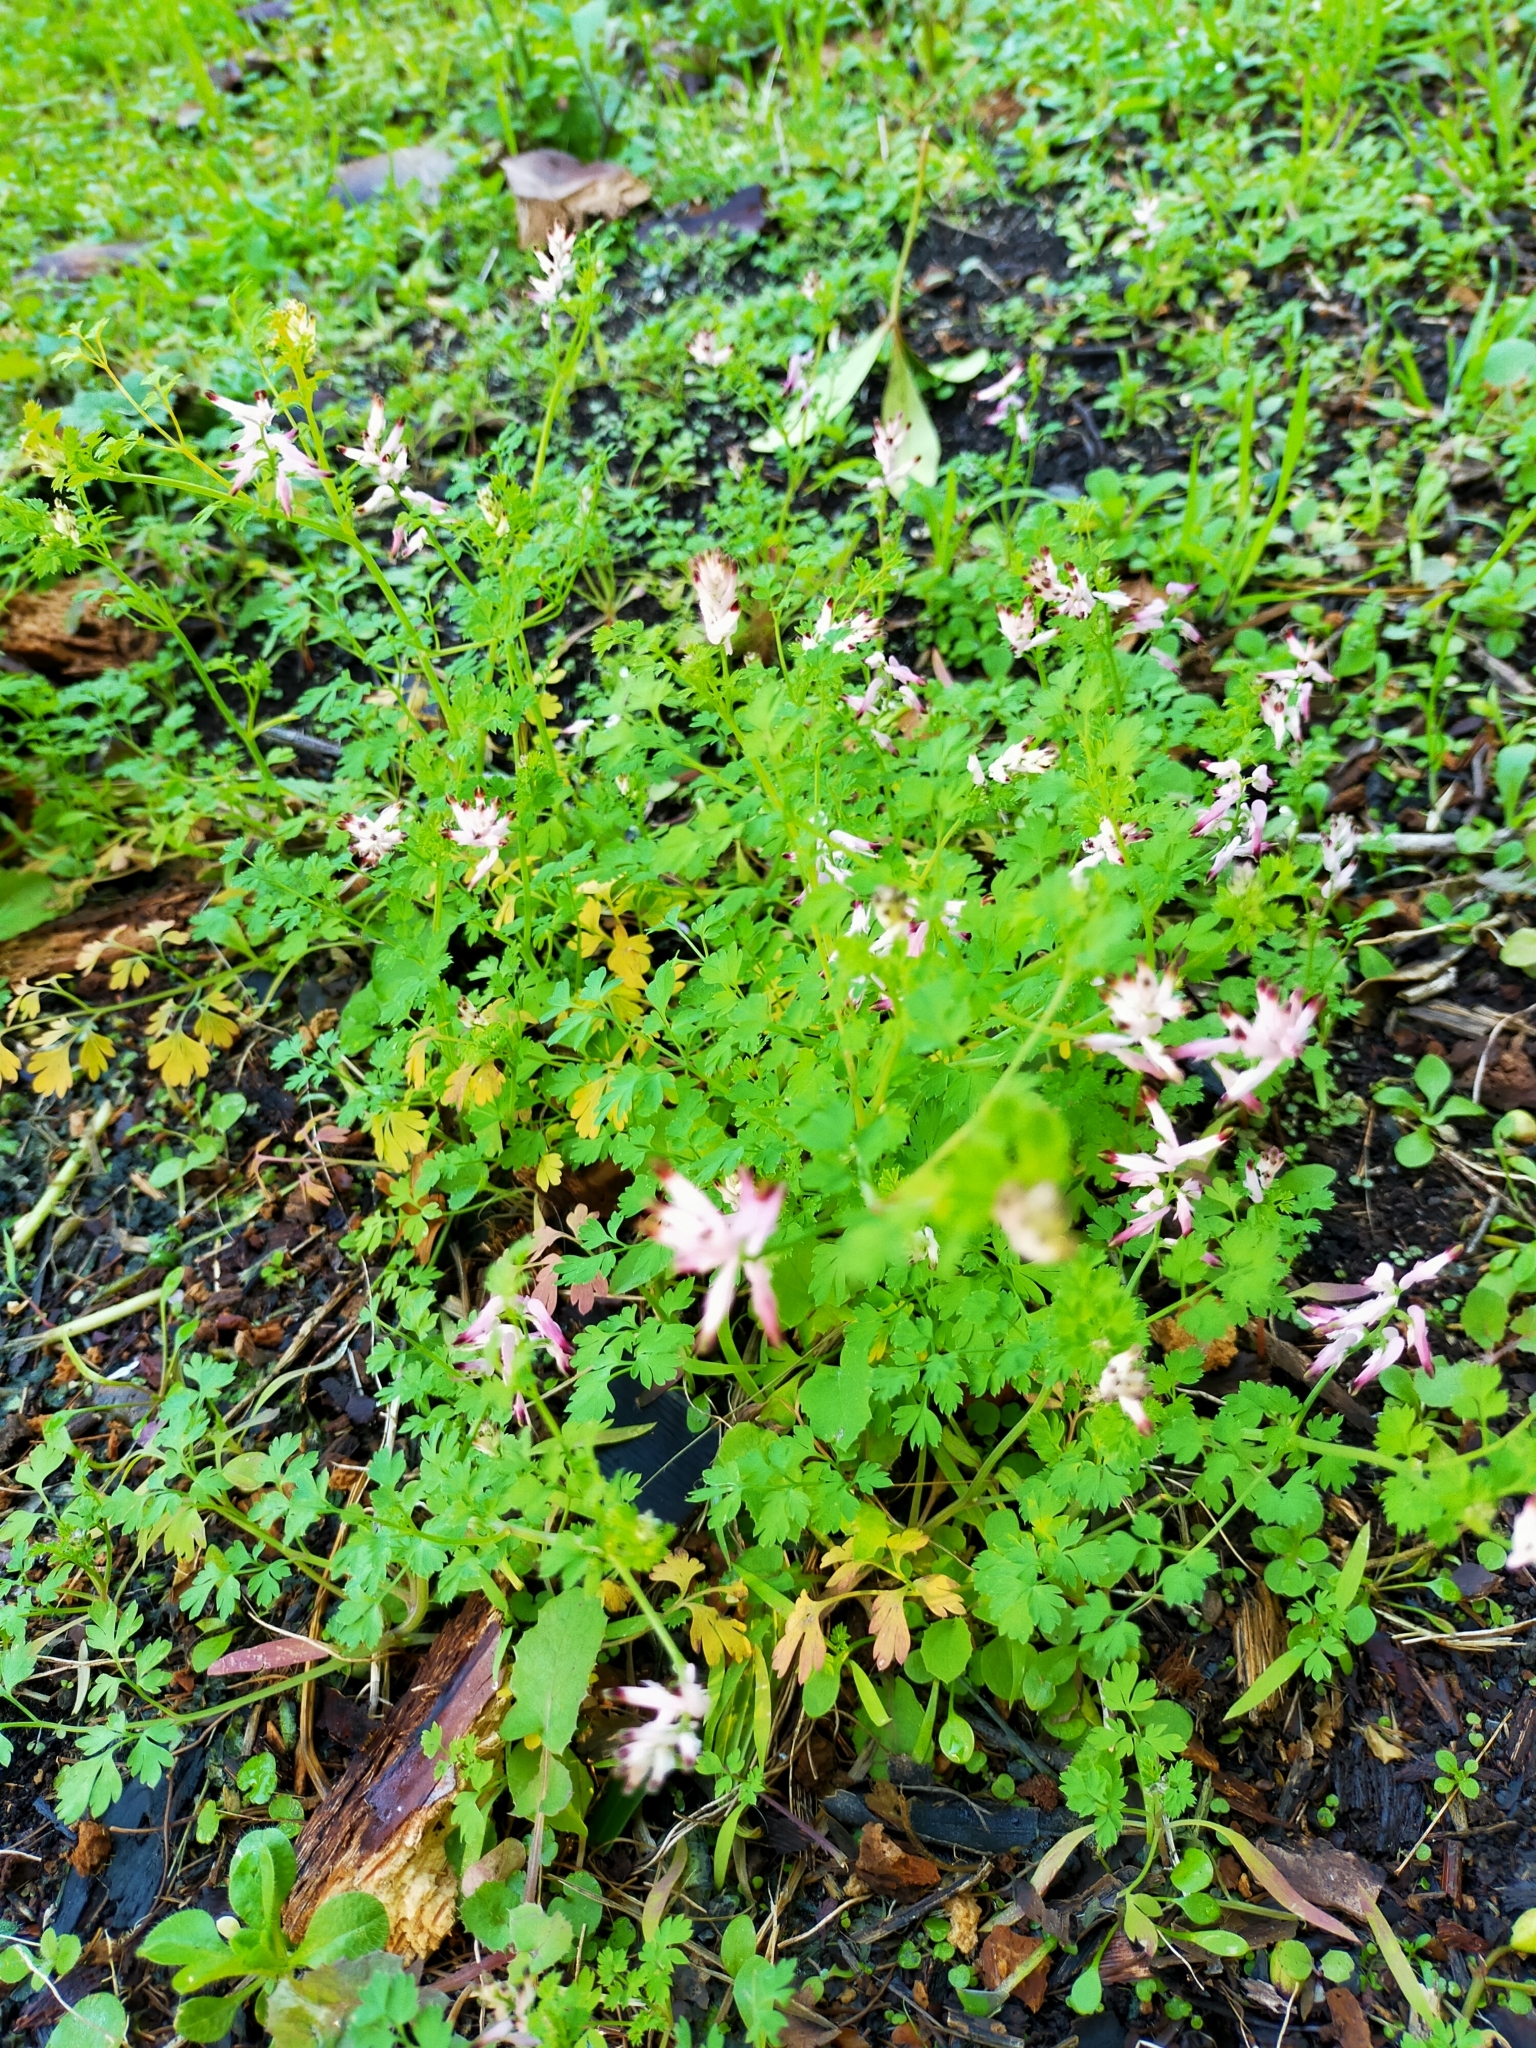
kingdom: Plantae
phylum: Tracheophyta
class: Magnoliopsida
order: Ranunculales
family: Papaveraceae
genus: Fumaria
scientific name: Fumaria muralis
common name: Common ramping-fumitory
